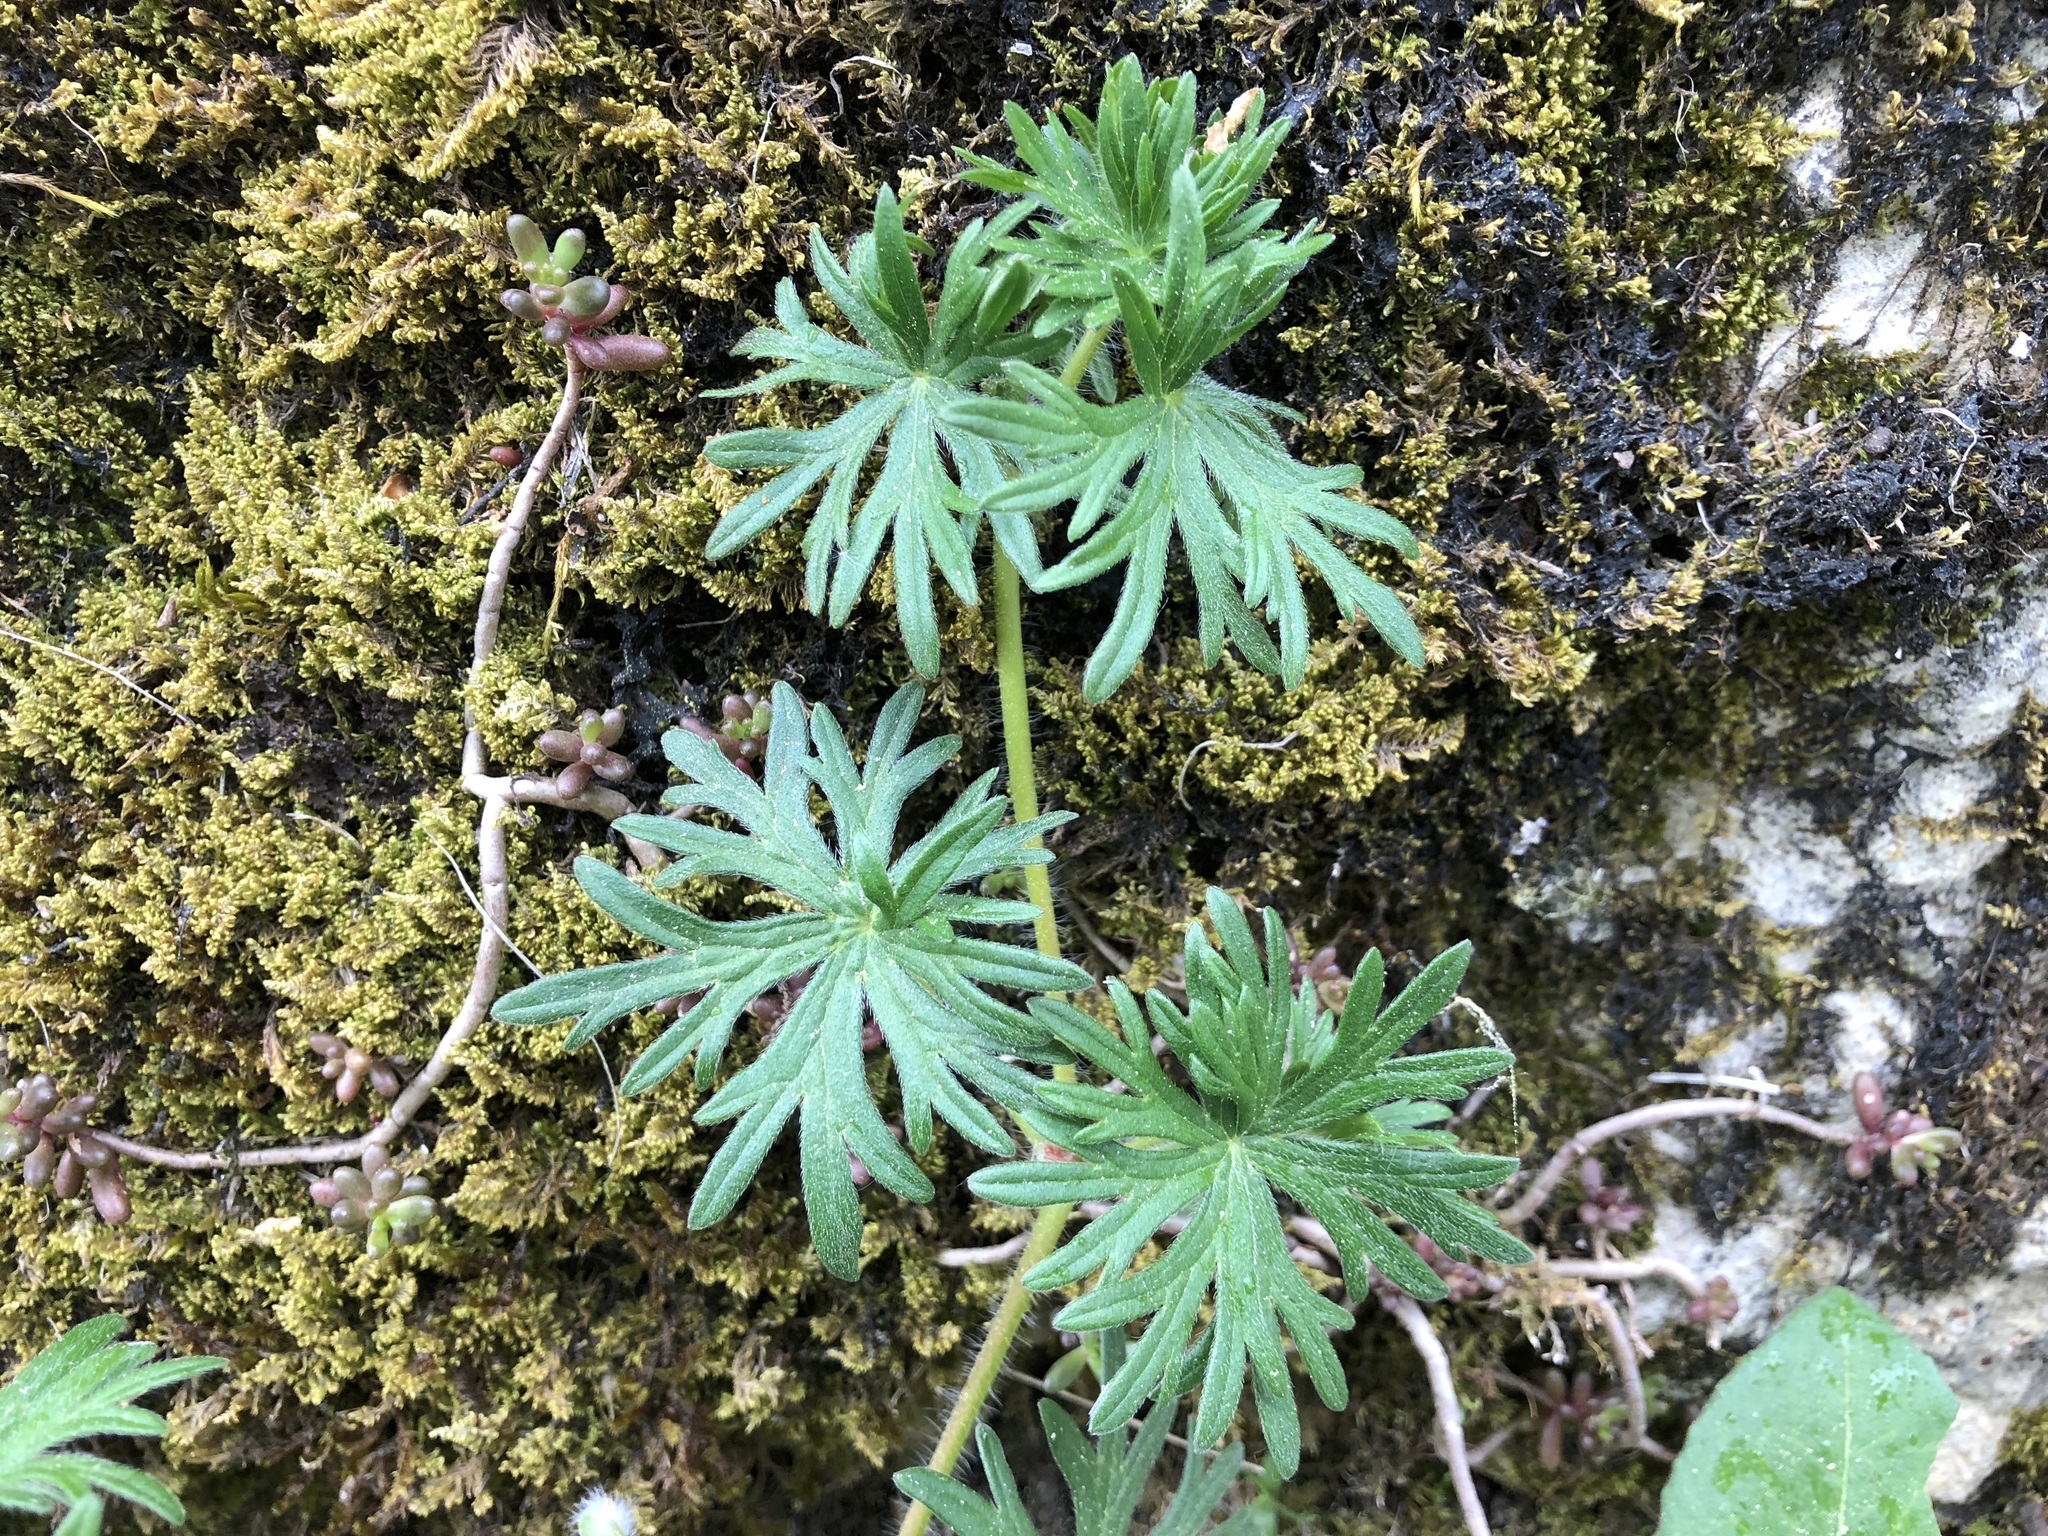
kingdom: Plantae
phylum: Tracheophyta
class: Magnoliopsida
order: Geraniales
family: Geraniaceae
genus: Geranium
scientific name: Geranium columbinum
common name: Long-stalked crane's-bill
